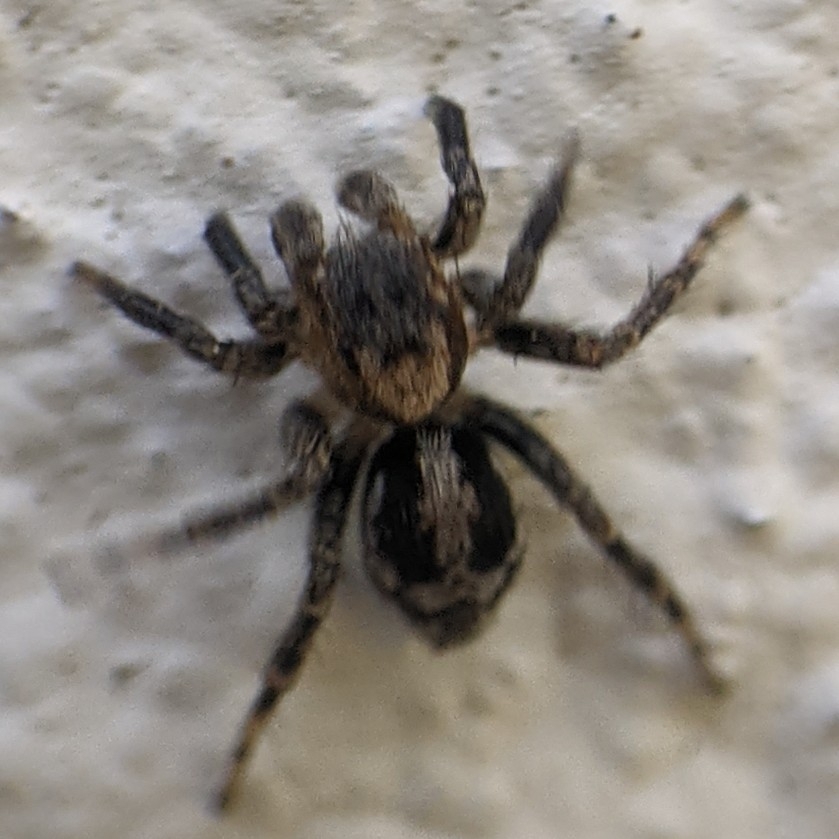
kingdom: Animalia
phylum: Arthropoda
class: Arachnida
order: Araneae
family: Salticidae
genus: Naphrys
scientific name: Naphrys pulex
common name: Flea jumping spider
